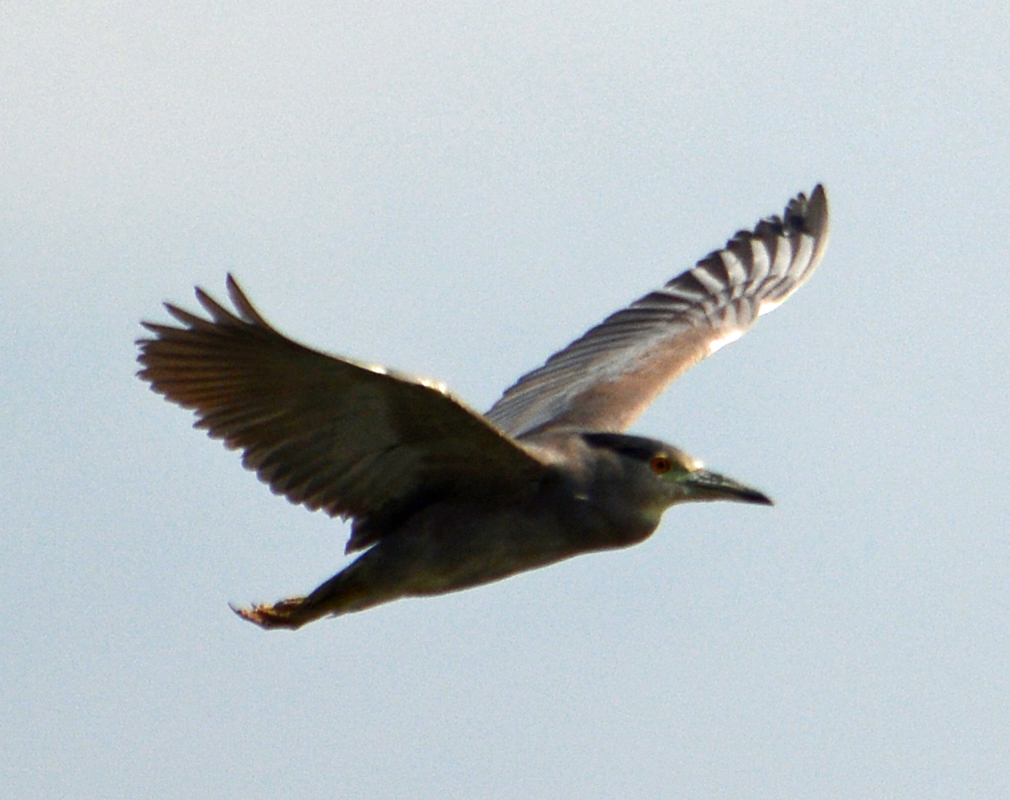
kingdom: Animalia
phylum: Chordata
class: Aves
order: Pelecaniformes
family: Ardeidae
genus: Nycticorax
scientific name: Nycticorax nycticorax
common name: Black-crowned night heron
